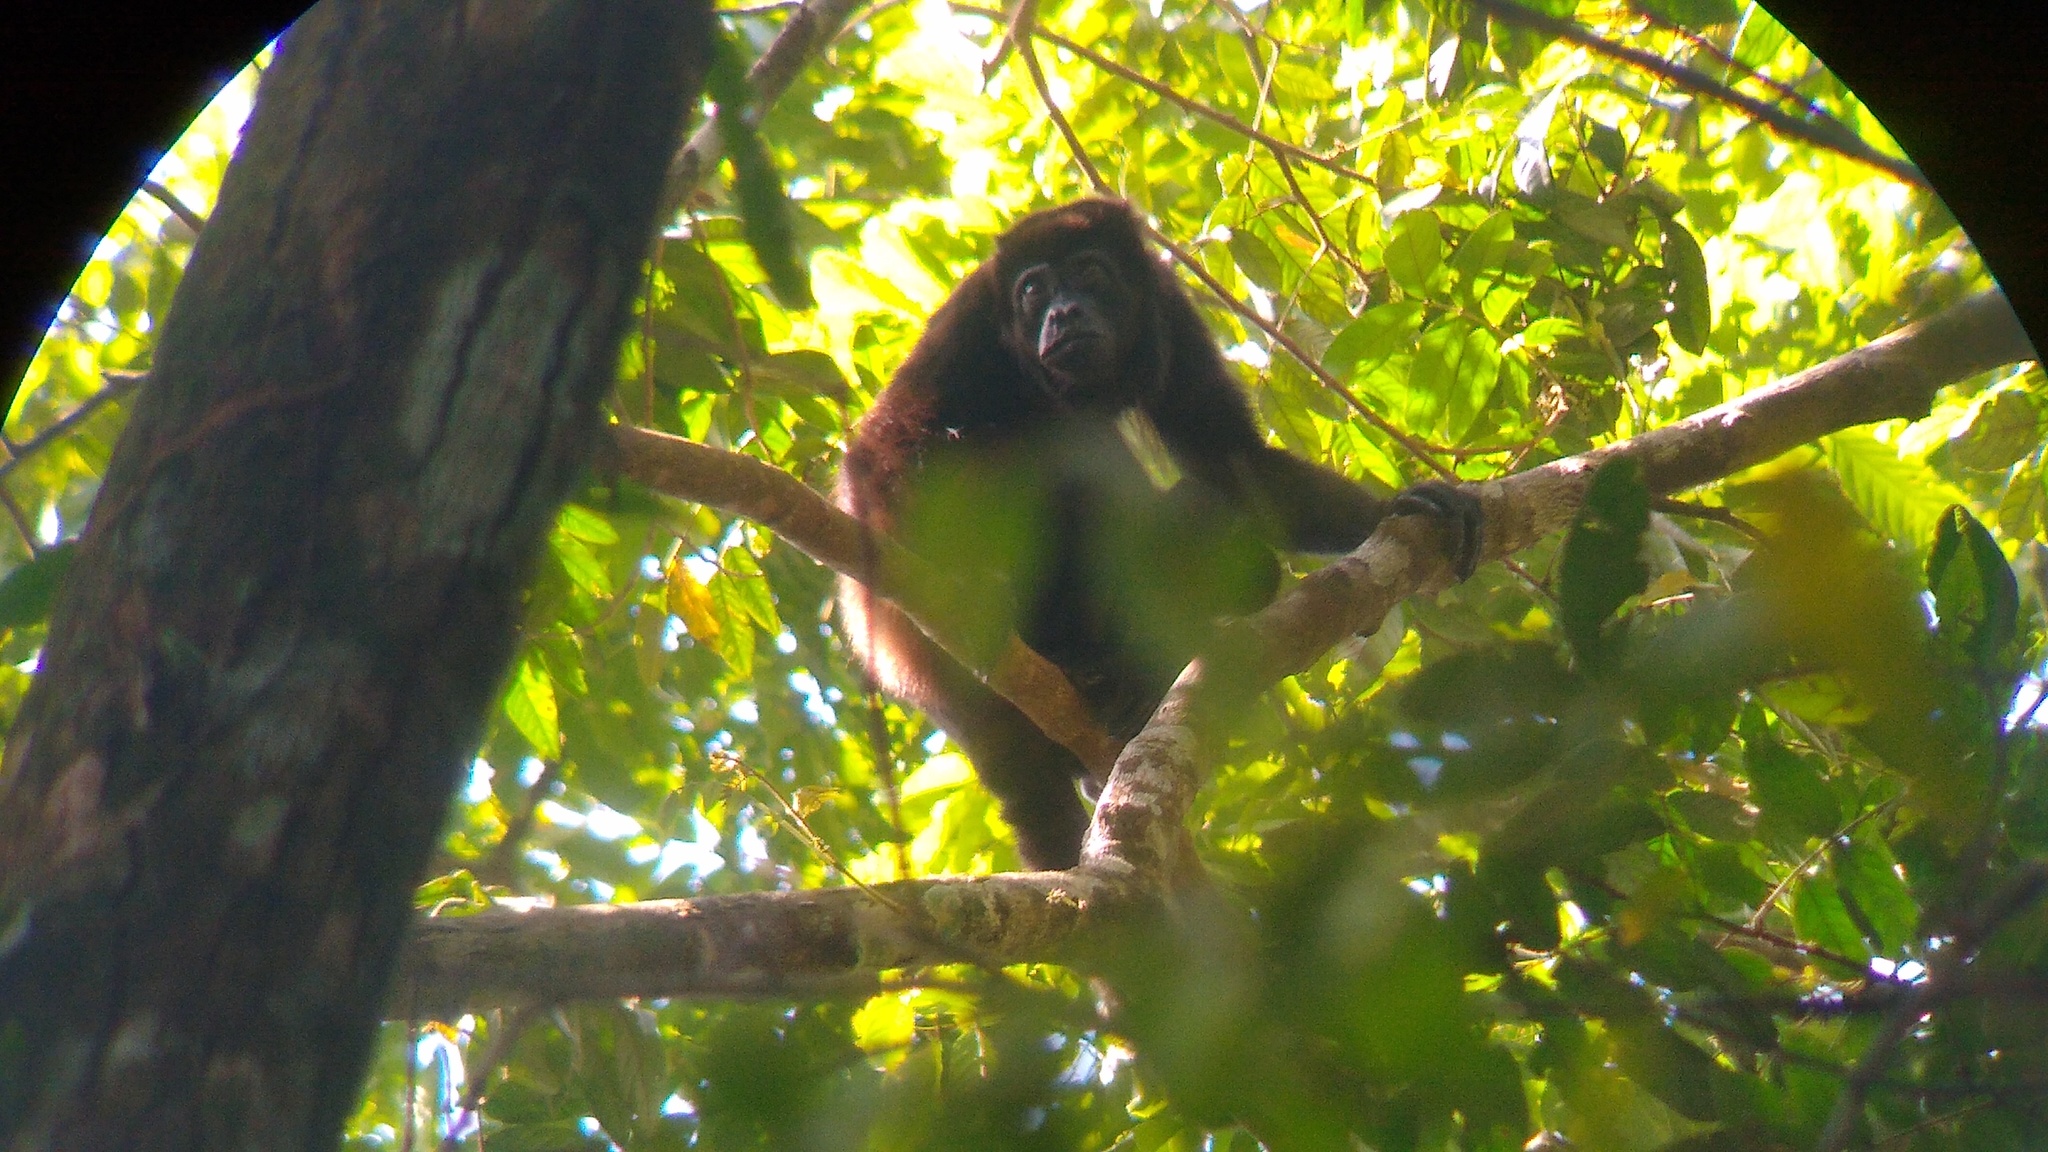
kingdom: Animalia
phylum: Chordata
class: Mammalia
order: Primates
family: Atelidae
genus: Alouatta
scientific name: Alouatta palliata
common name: Mantled howler
